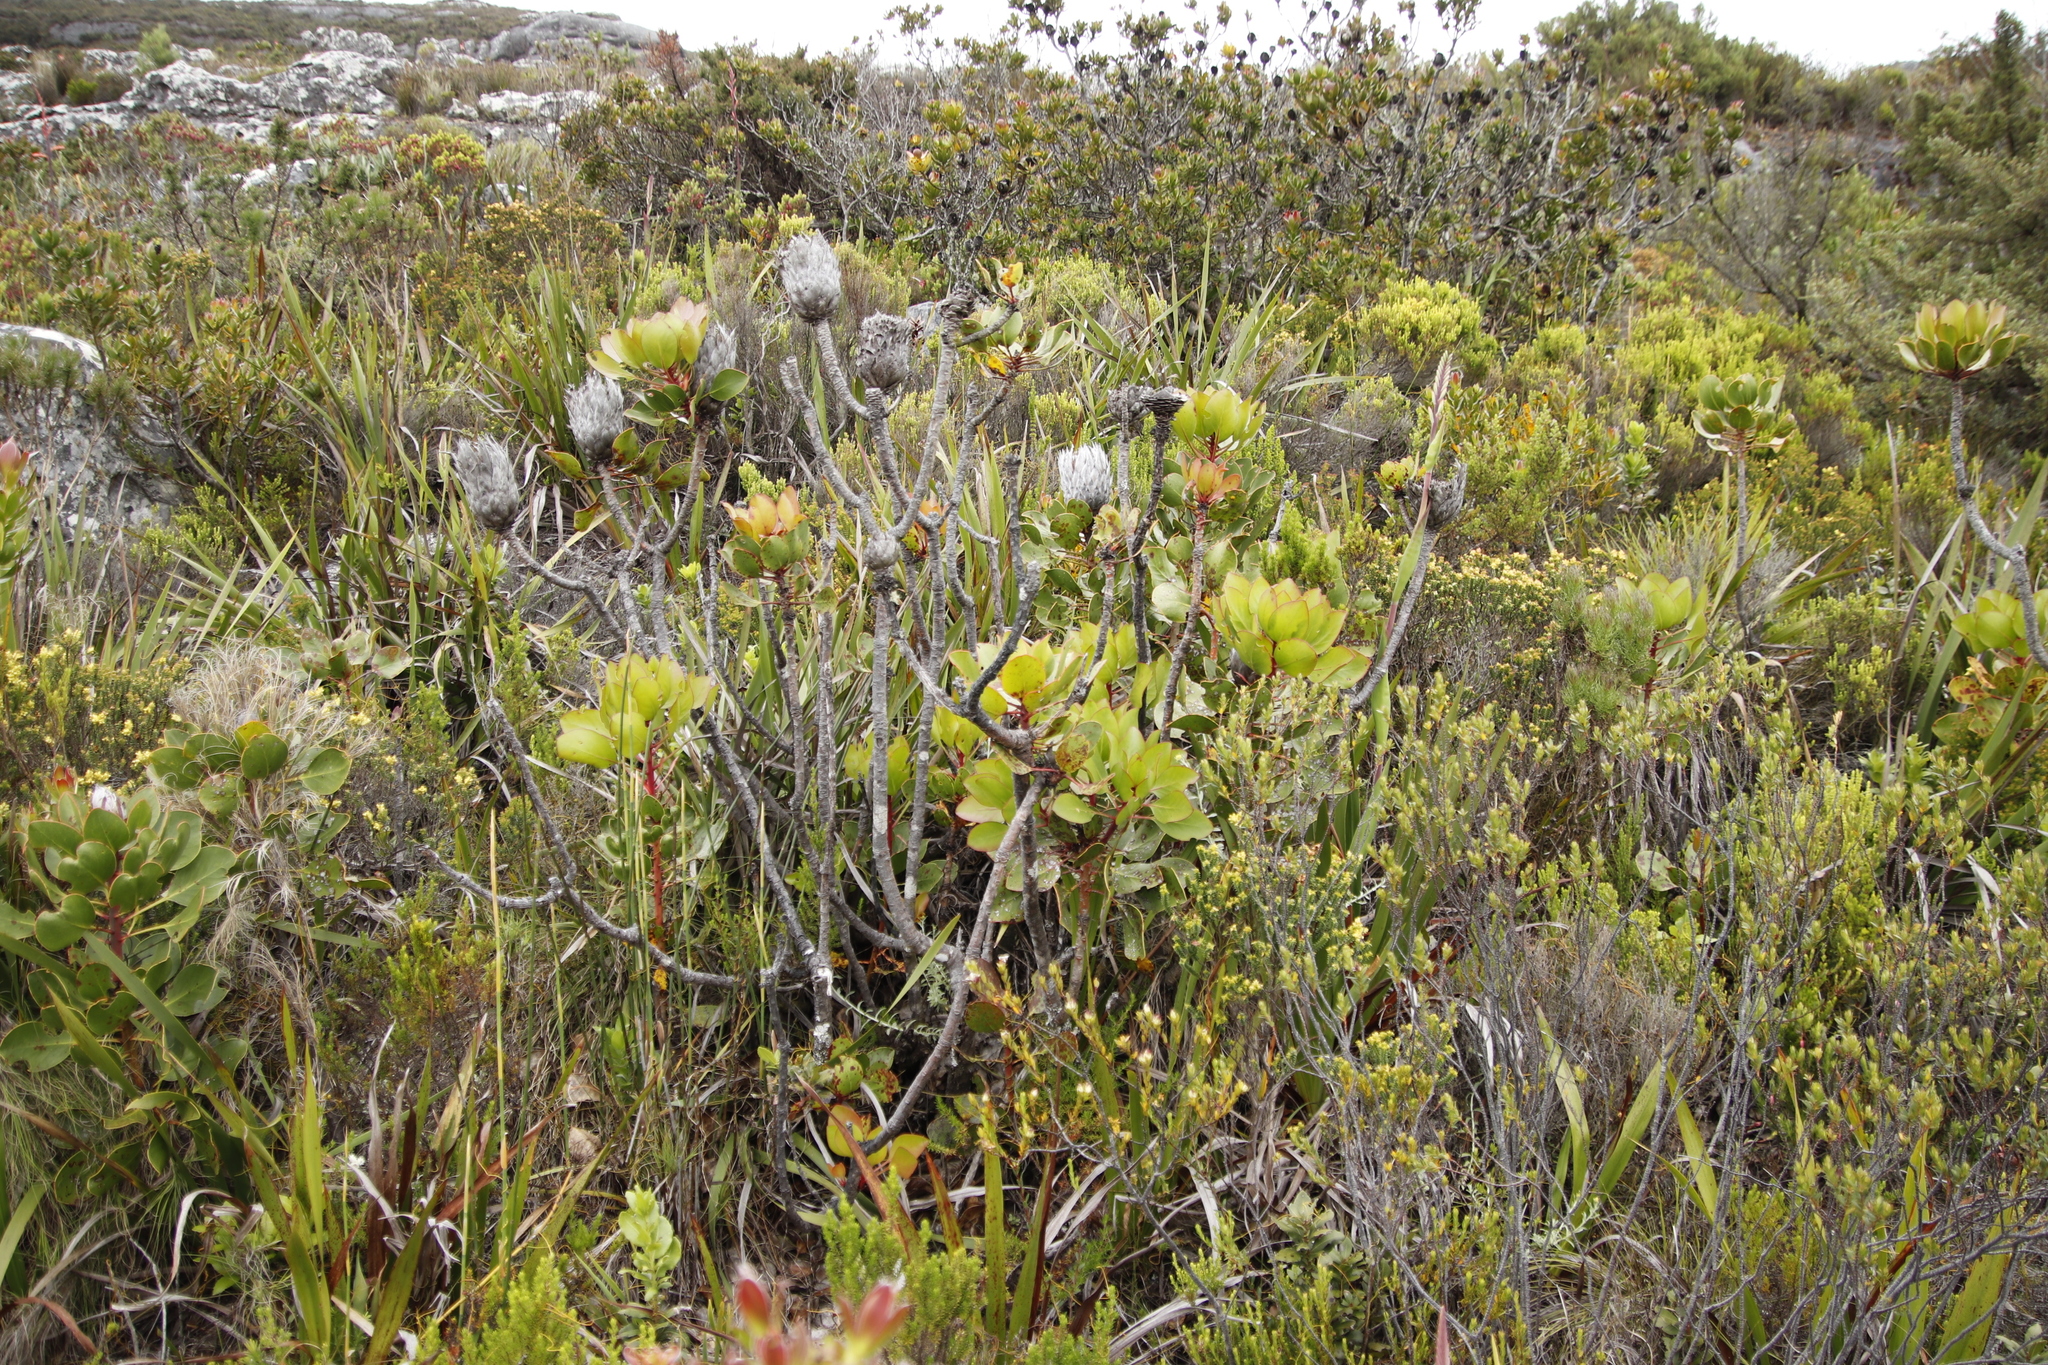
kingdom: Plantae
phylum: Tracheophyta
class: Magnoliopsida
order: Proteales
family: Proteaceae
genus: Protea
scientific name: Protea cynaroides
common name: King protea
